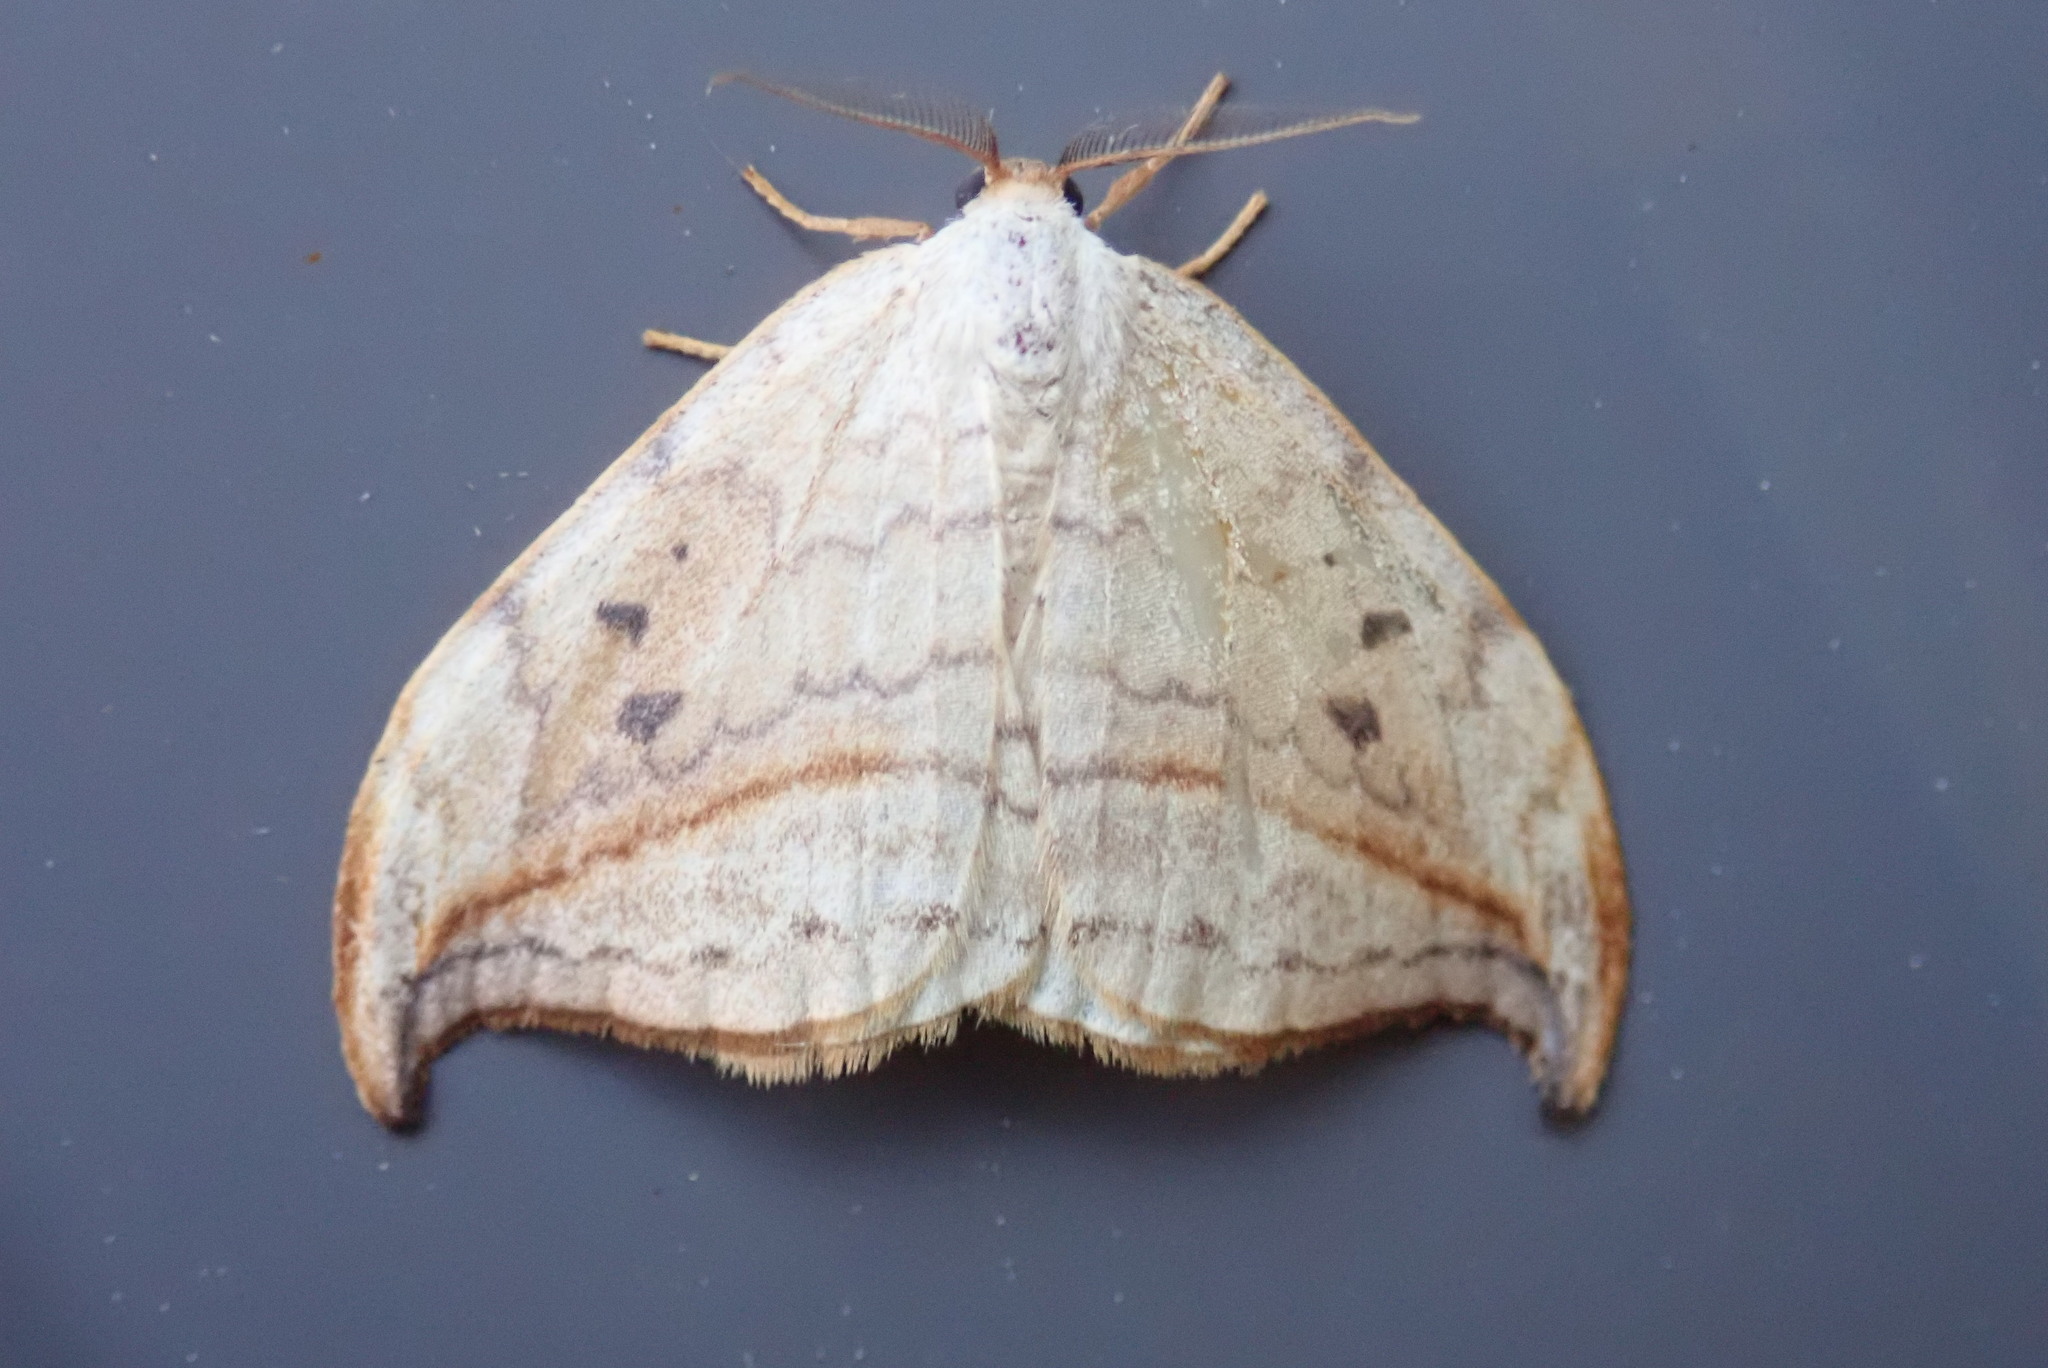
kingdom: Animalia
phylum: Arthropoda
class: Insecta
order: Lepidoptera
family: Drepanidae
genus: Drepana
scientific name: Drepana arcuata
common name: Arched hooktip moth
